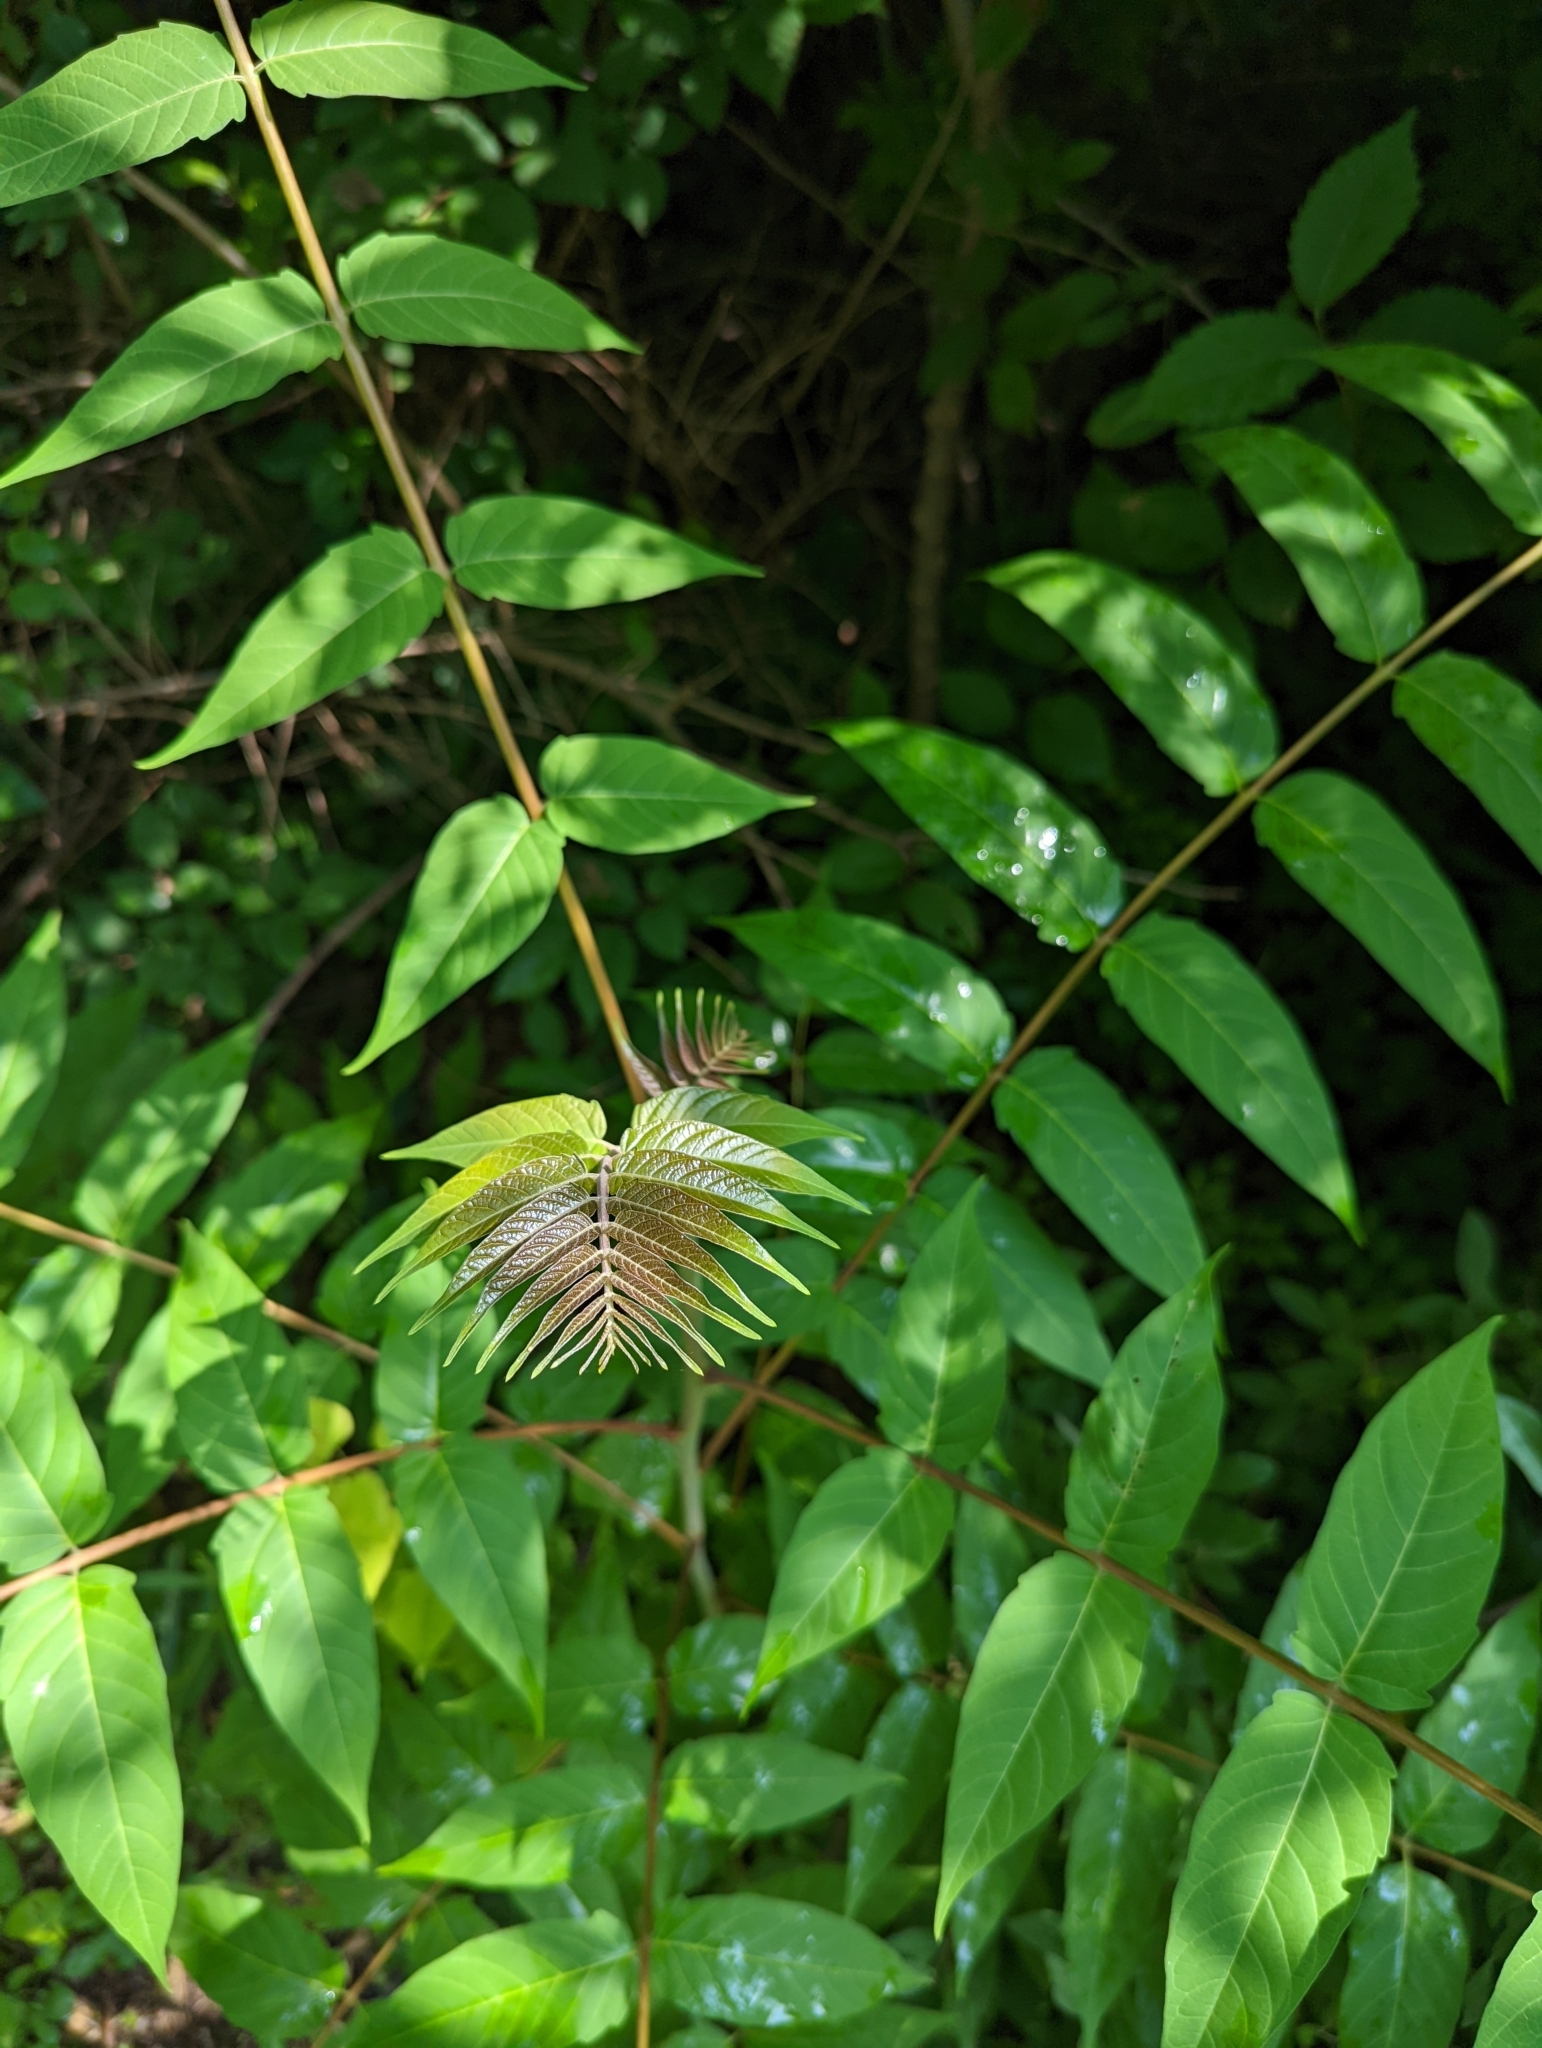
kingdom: Plantae
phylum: Tracheophyta
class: Magnoliopsida
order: Sapindales
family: Simaroubaceae
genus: Ailanthus
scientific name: Ailanthus altissima
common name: Tree-of-heaven
